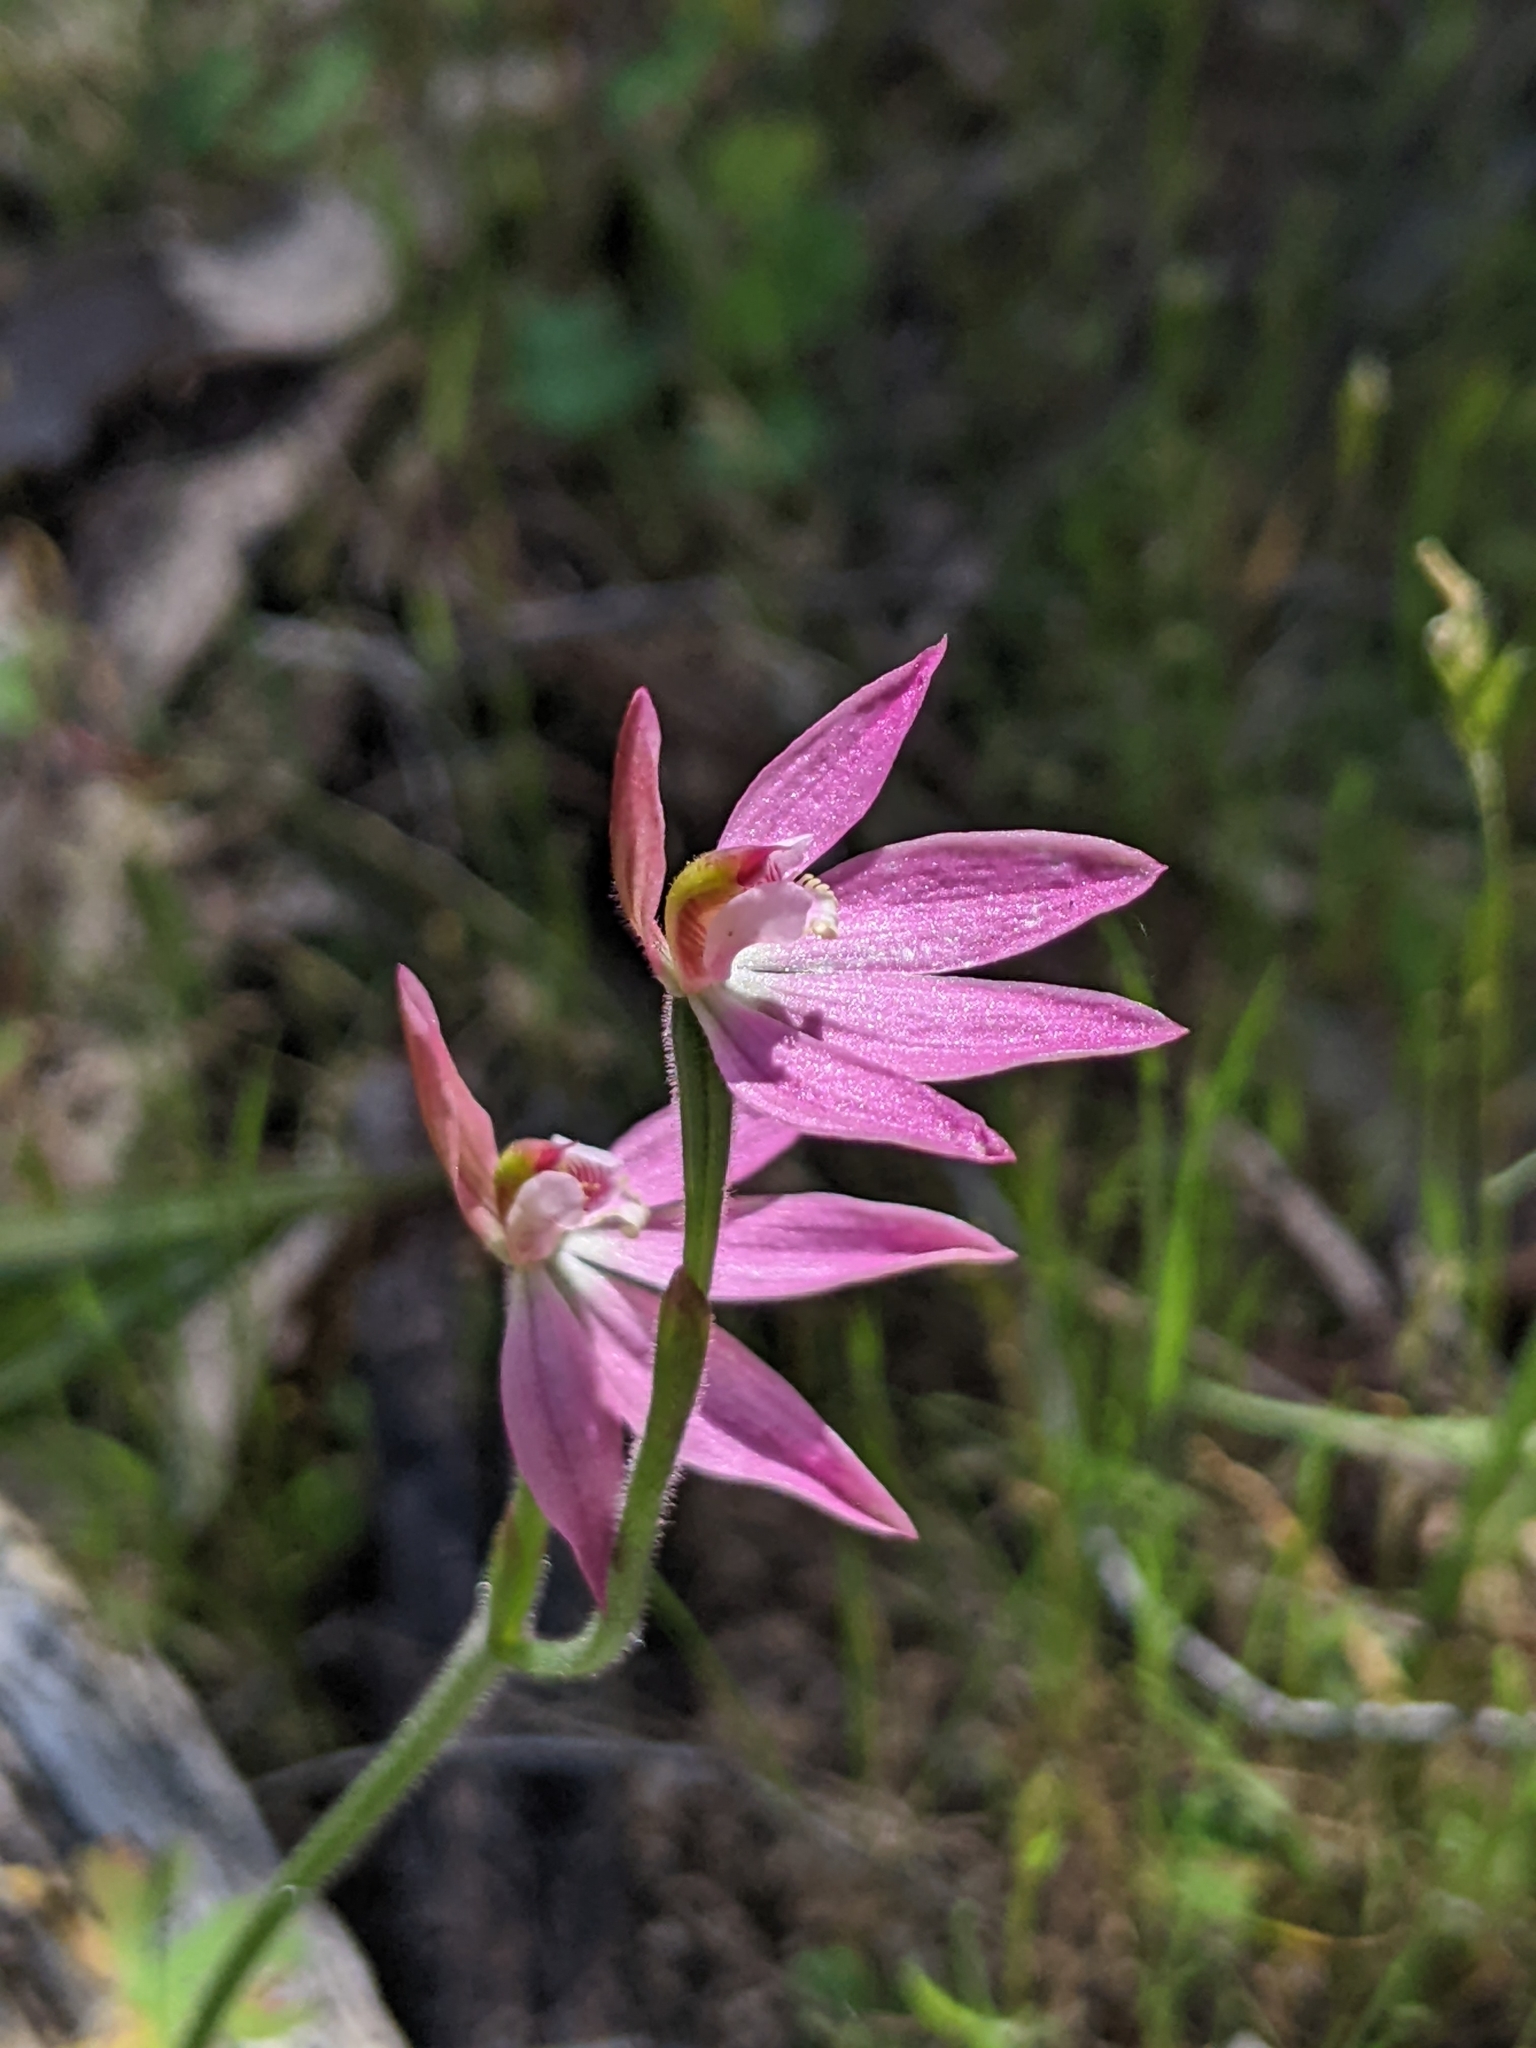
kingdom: Plantae
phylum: Tracheophyta
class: Liliopsida
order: Asparagales
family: Orchidaceae
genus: Caladenia
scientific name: Caladenia carnea
